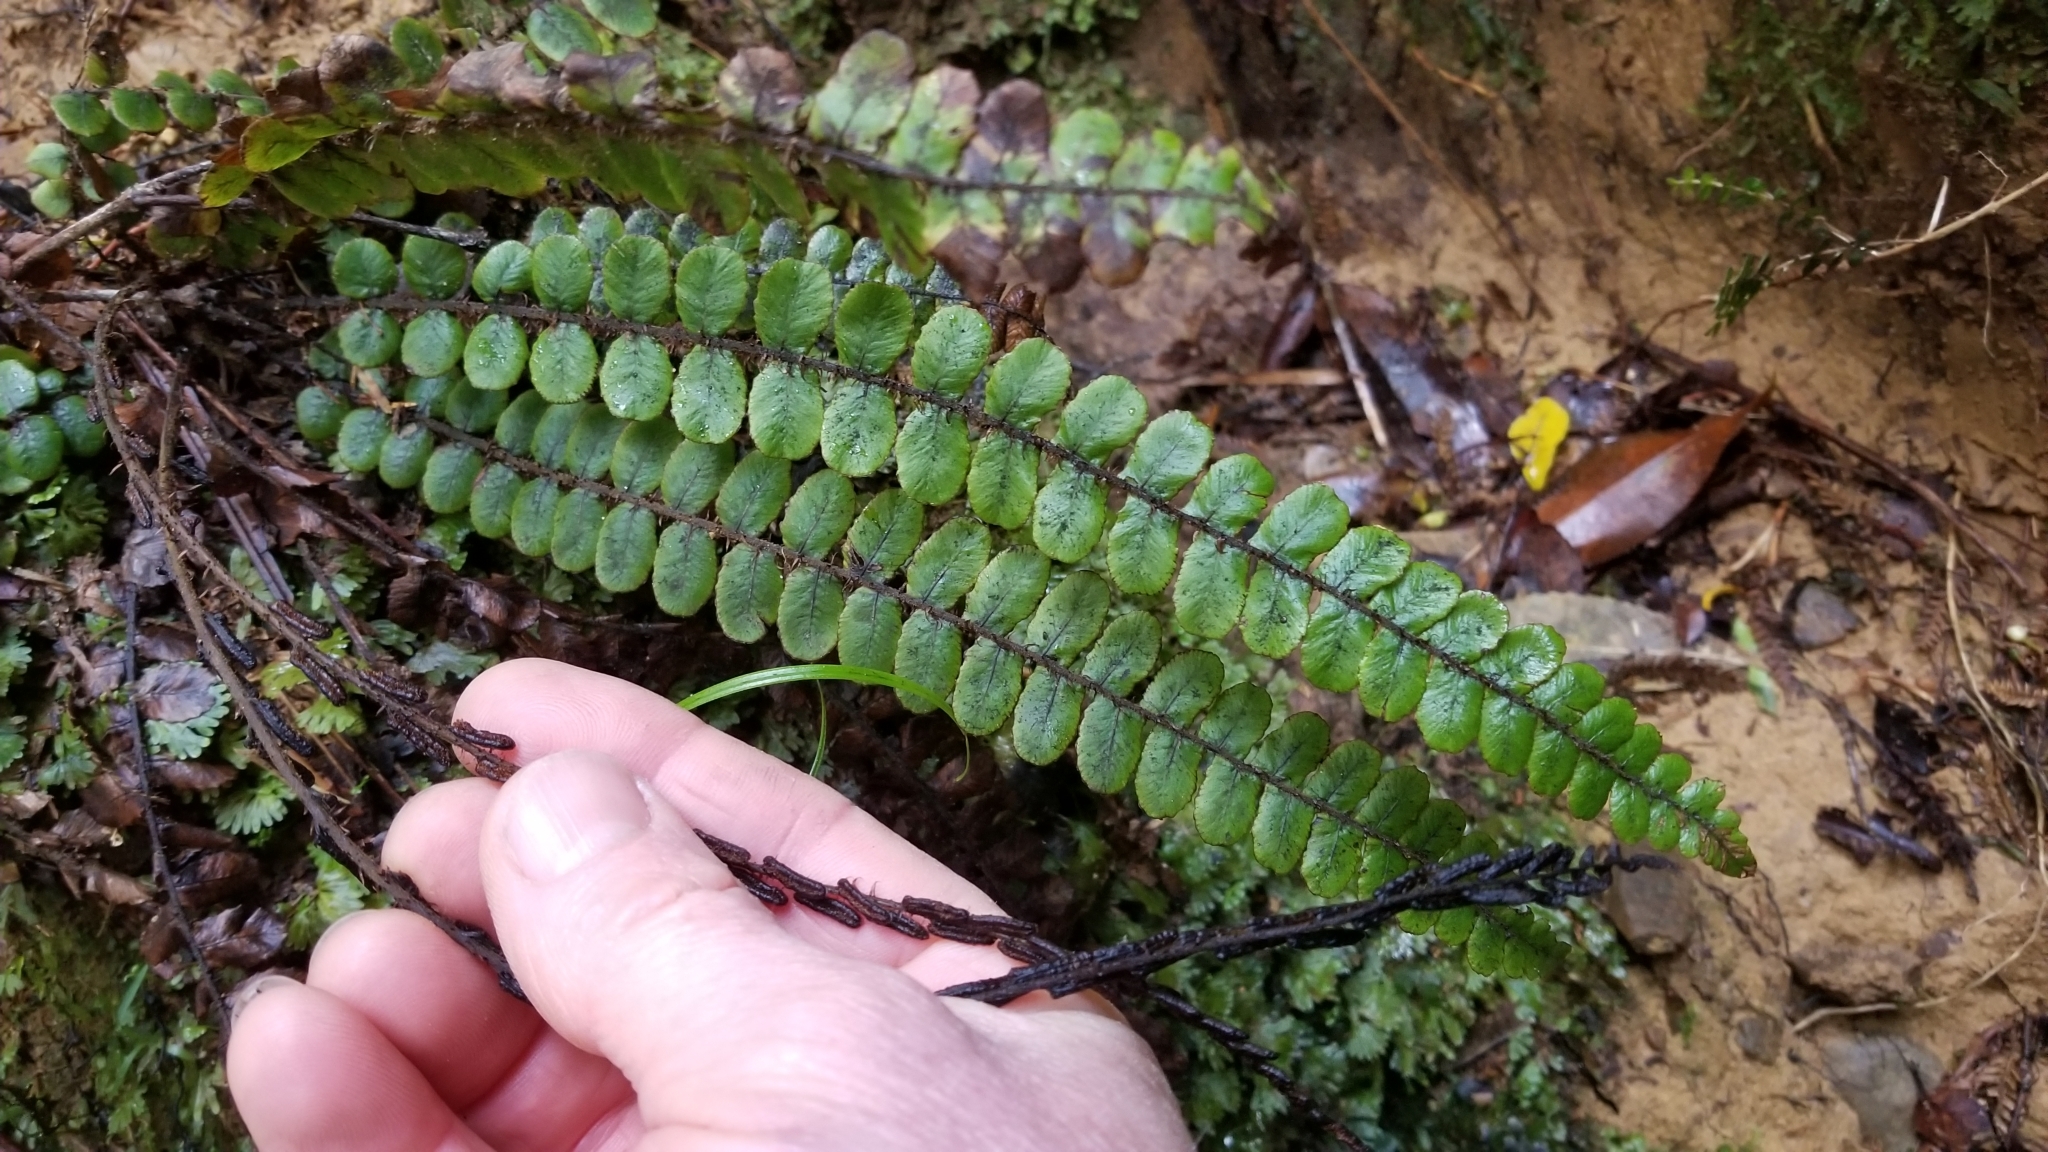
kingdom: Plantae
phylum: Tracheophyta
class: Polypodiopsida
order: Polypodiales
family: Blechnaceae
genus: Cranfillia
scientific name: Cranfillia fluviatilis
